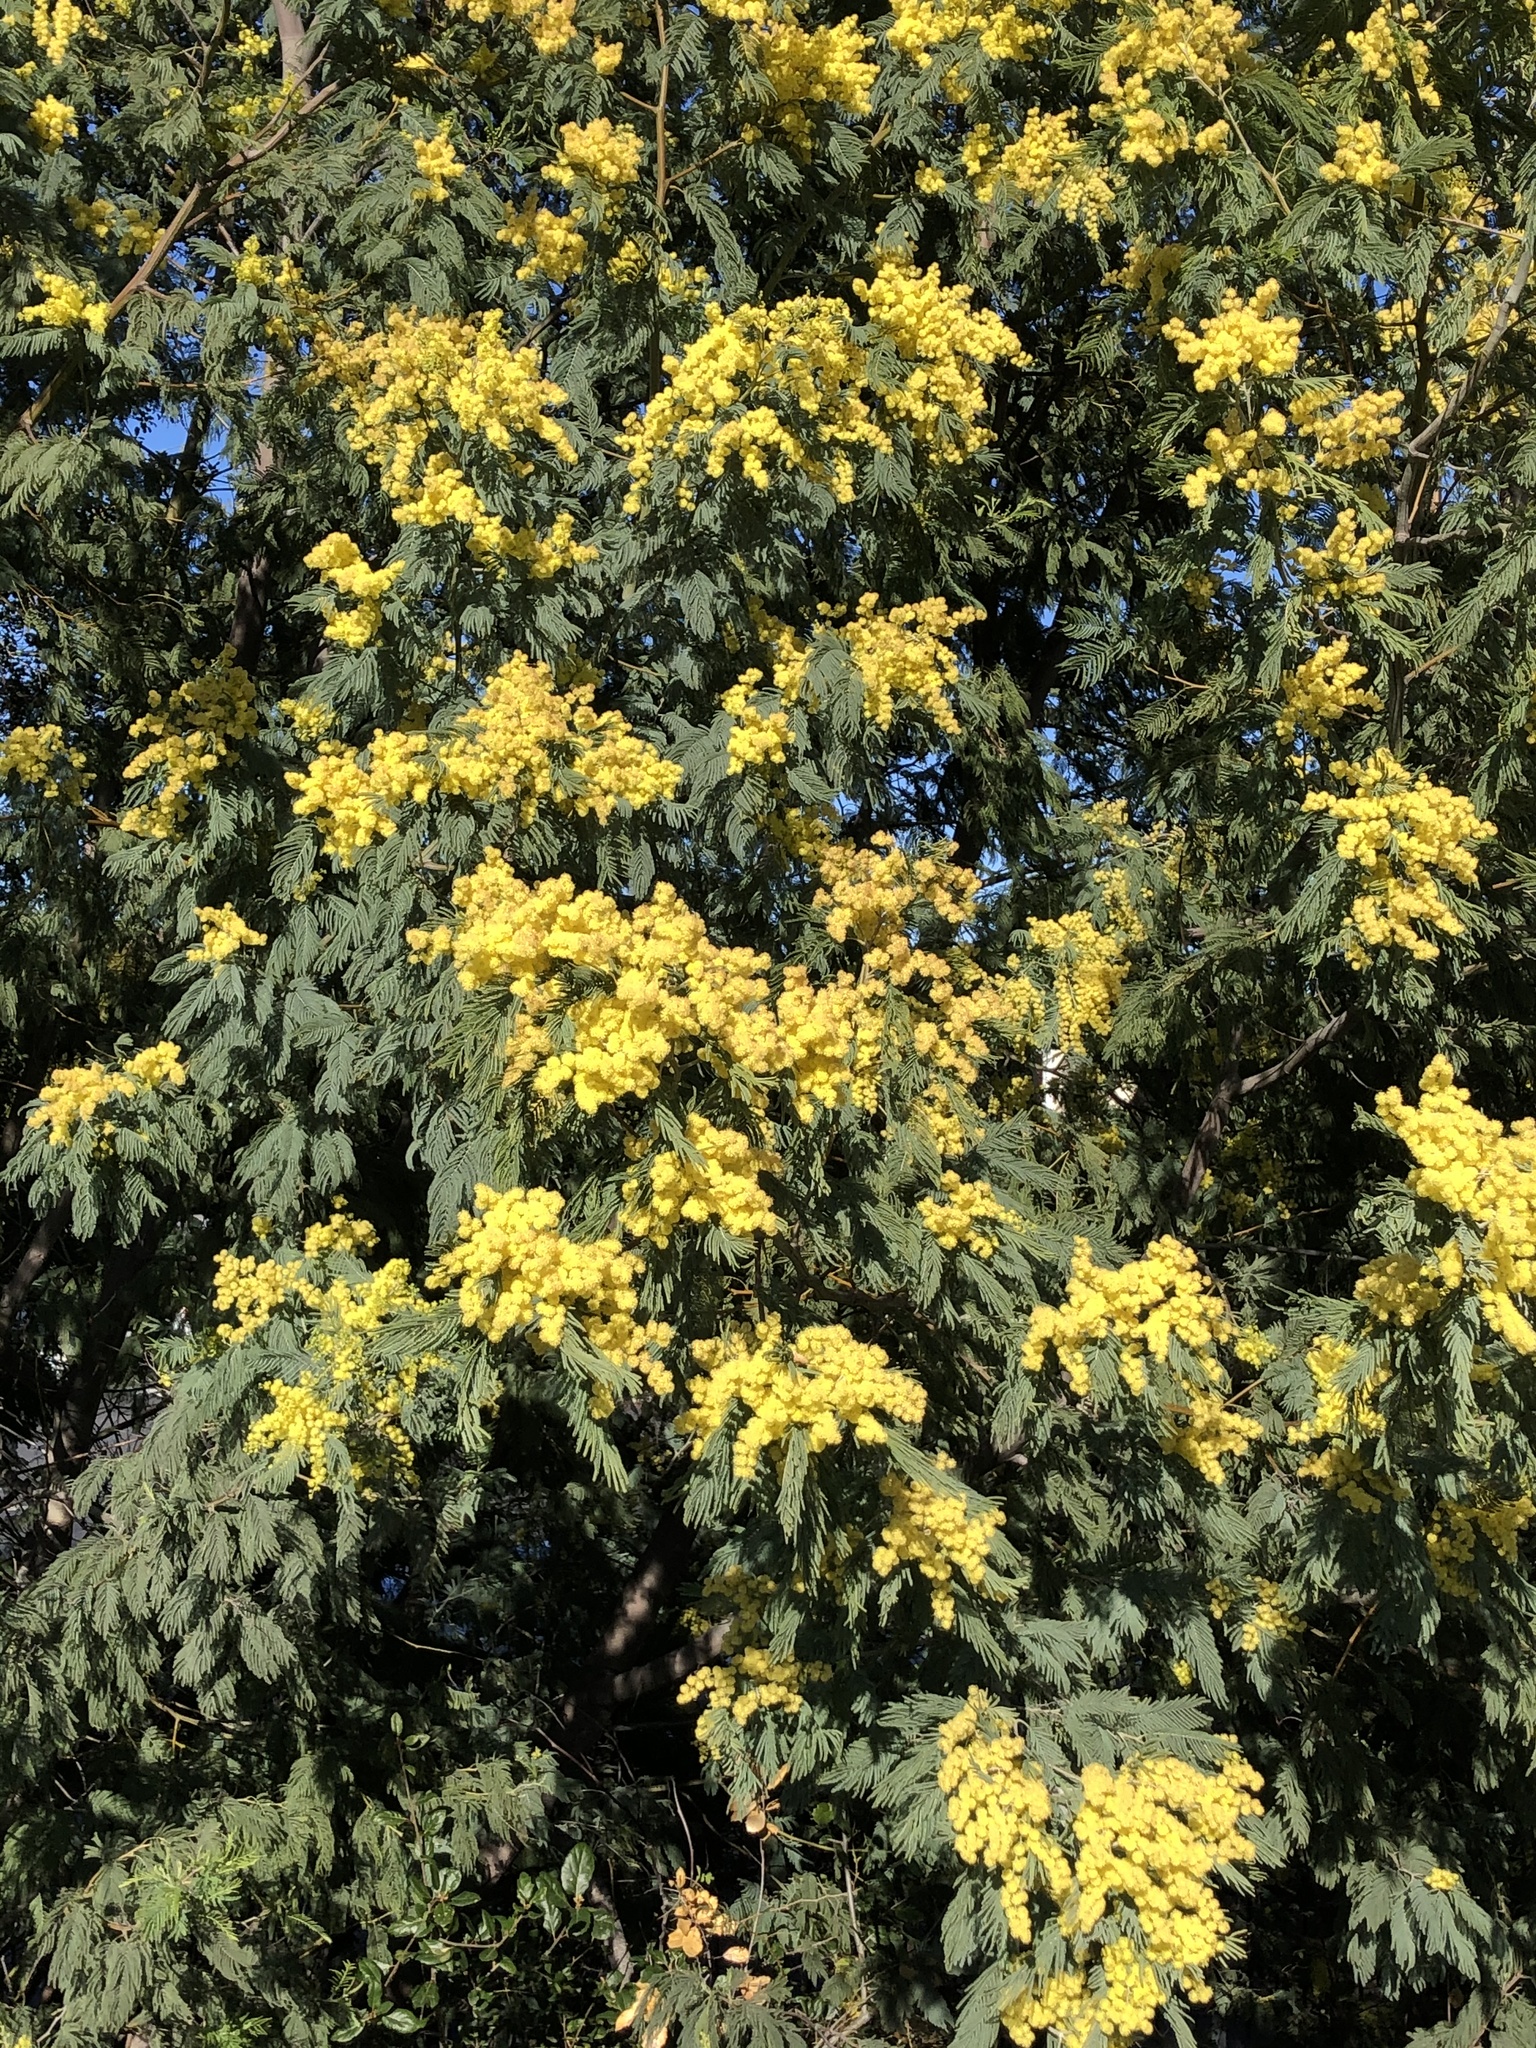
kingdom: Plantae
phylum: Tracheophyta
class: Magnoliopsida
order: Fabales
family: Fabaceae
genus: Acacia
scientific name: Acacia dealbata
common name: Silver wattle
